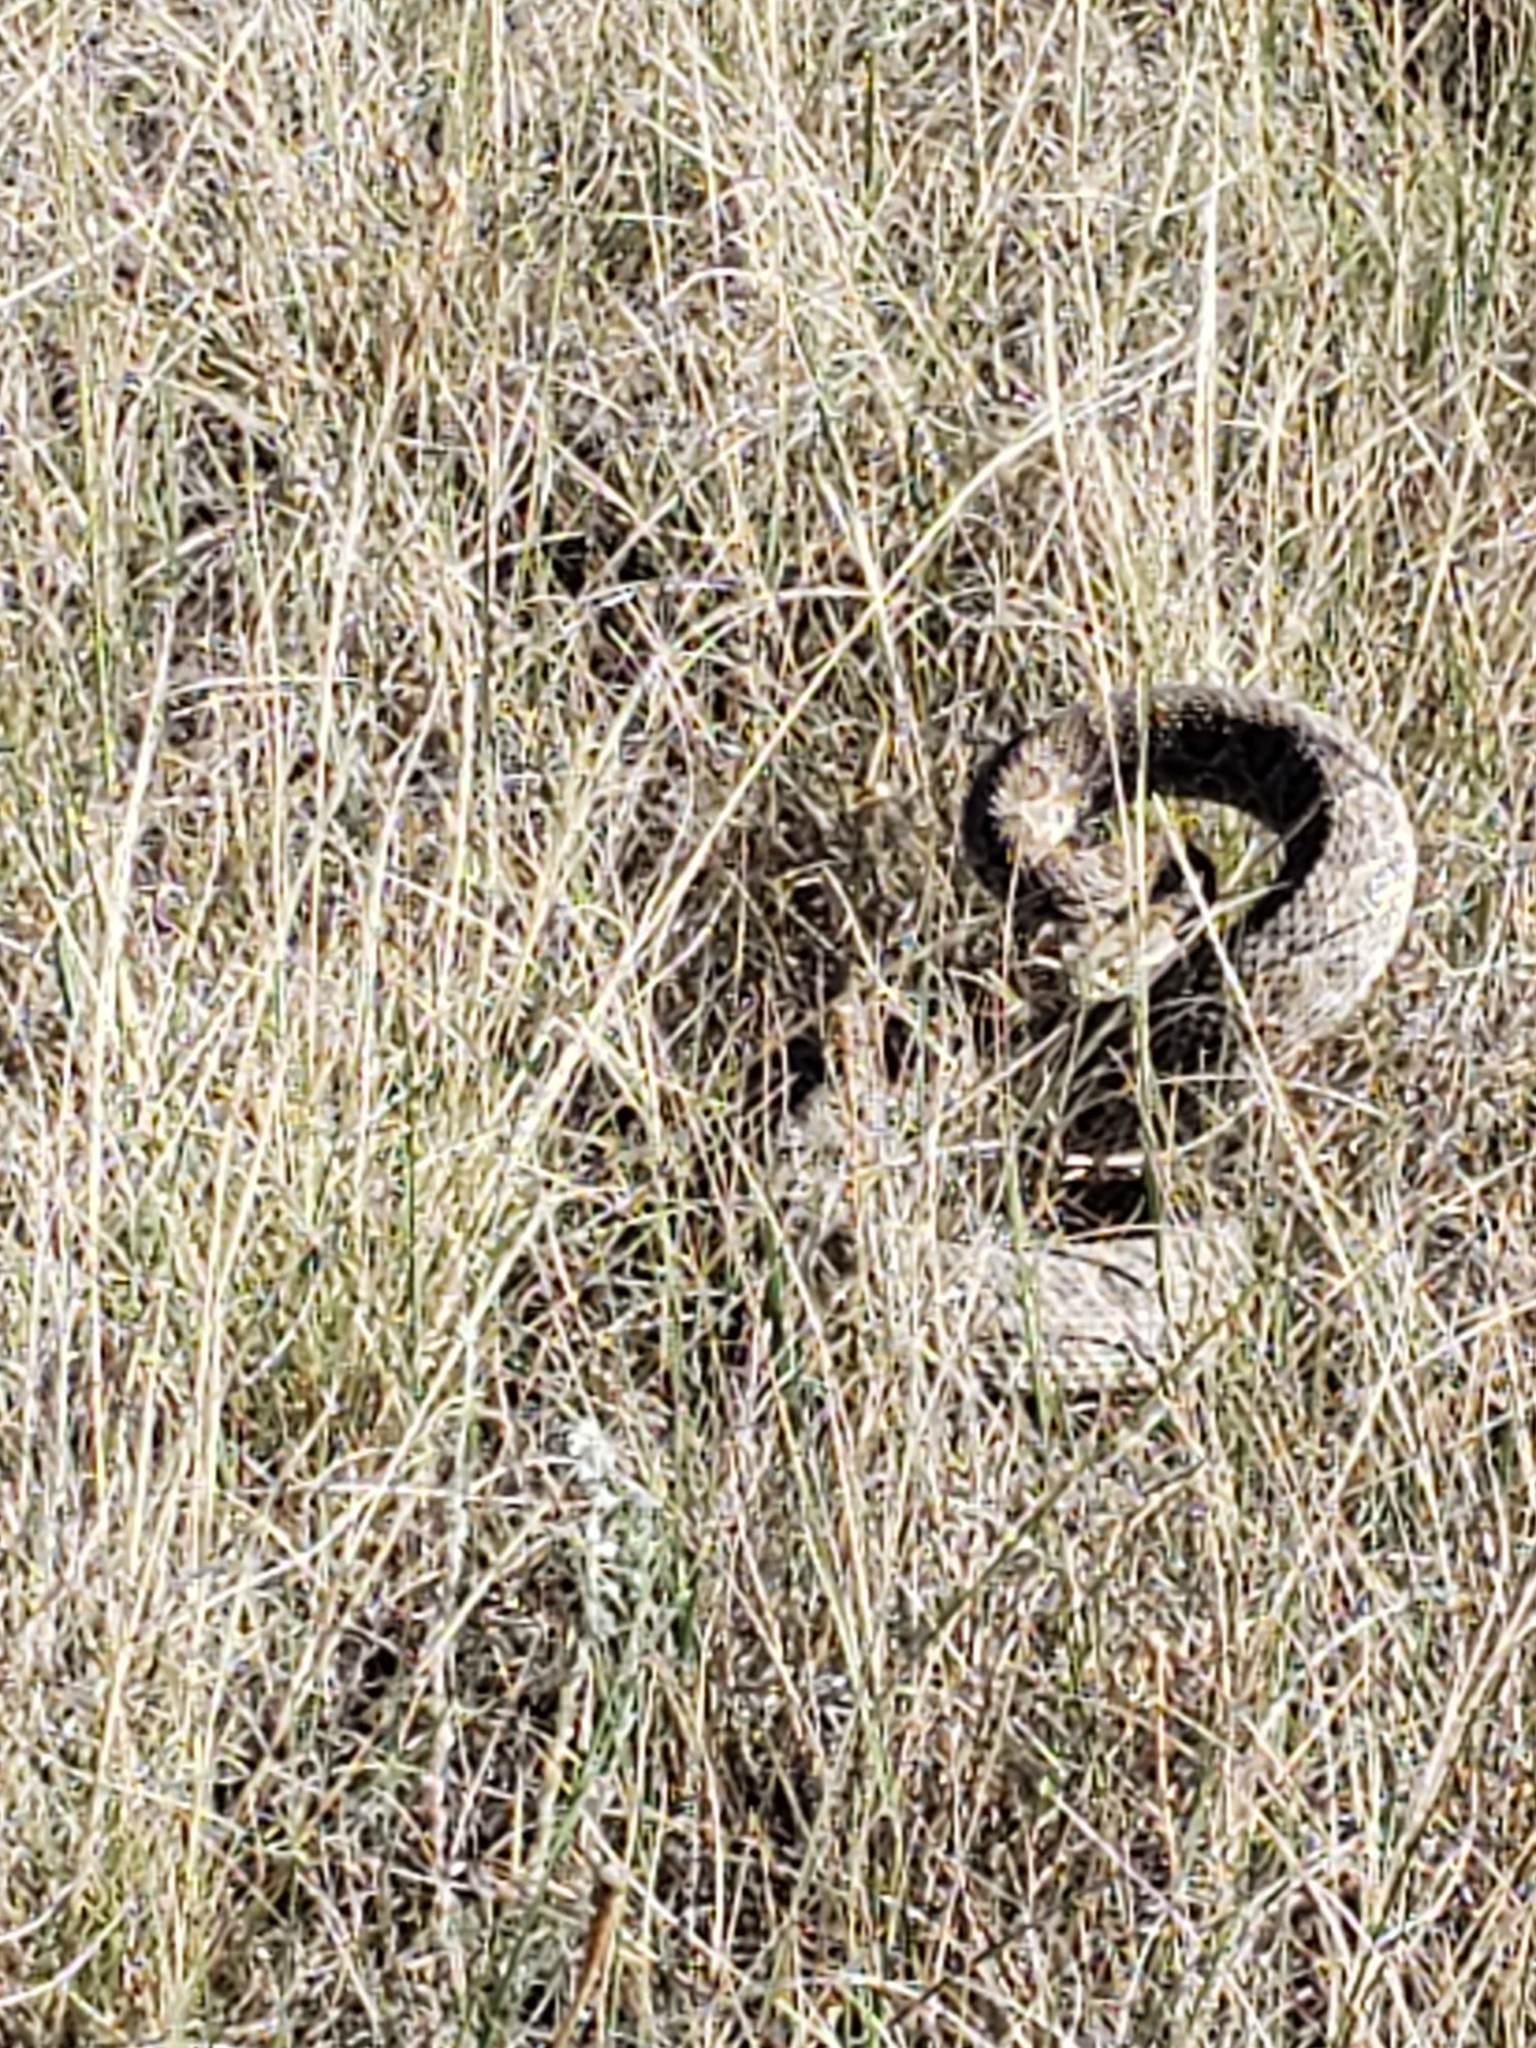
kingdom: Animalia
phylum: Chordata
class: Squamata
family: Viperidae
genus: Crotalus
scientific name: Crotalus viridis
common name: Prairie rattlesnake
